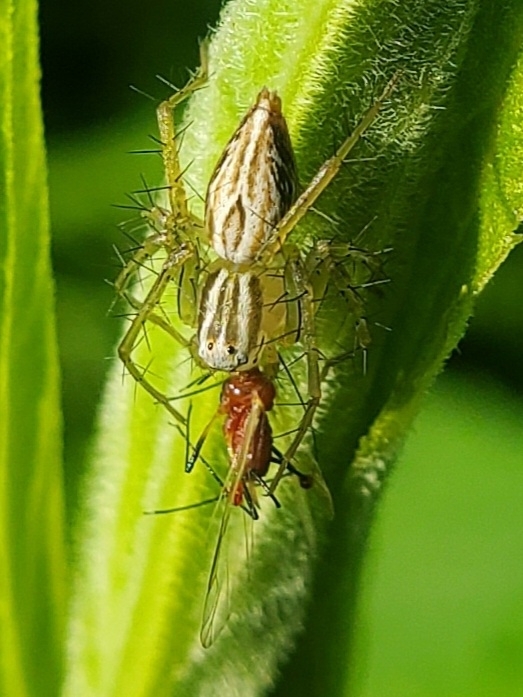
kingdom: Animalia
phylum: Arthropoda
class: Arachnida
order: Araneae
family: Oxyopidae
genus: Oxyopes
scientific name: Oxyopes salticus
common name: Lynx spiders
